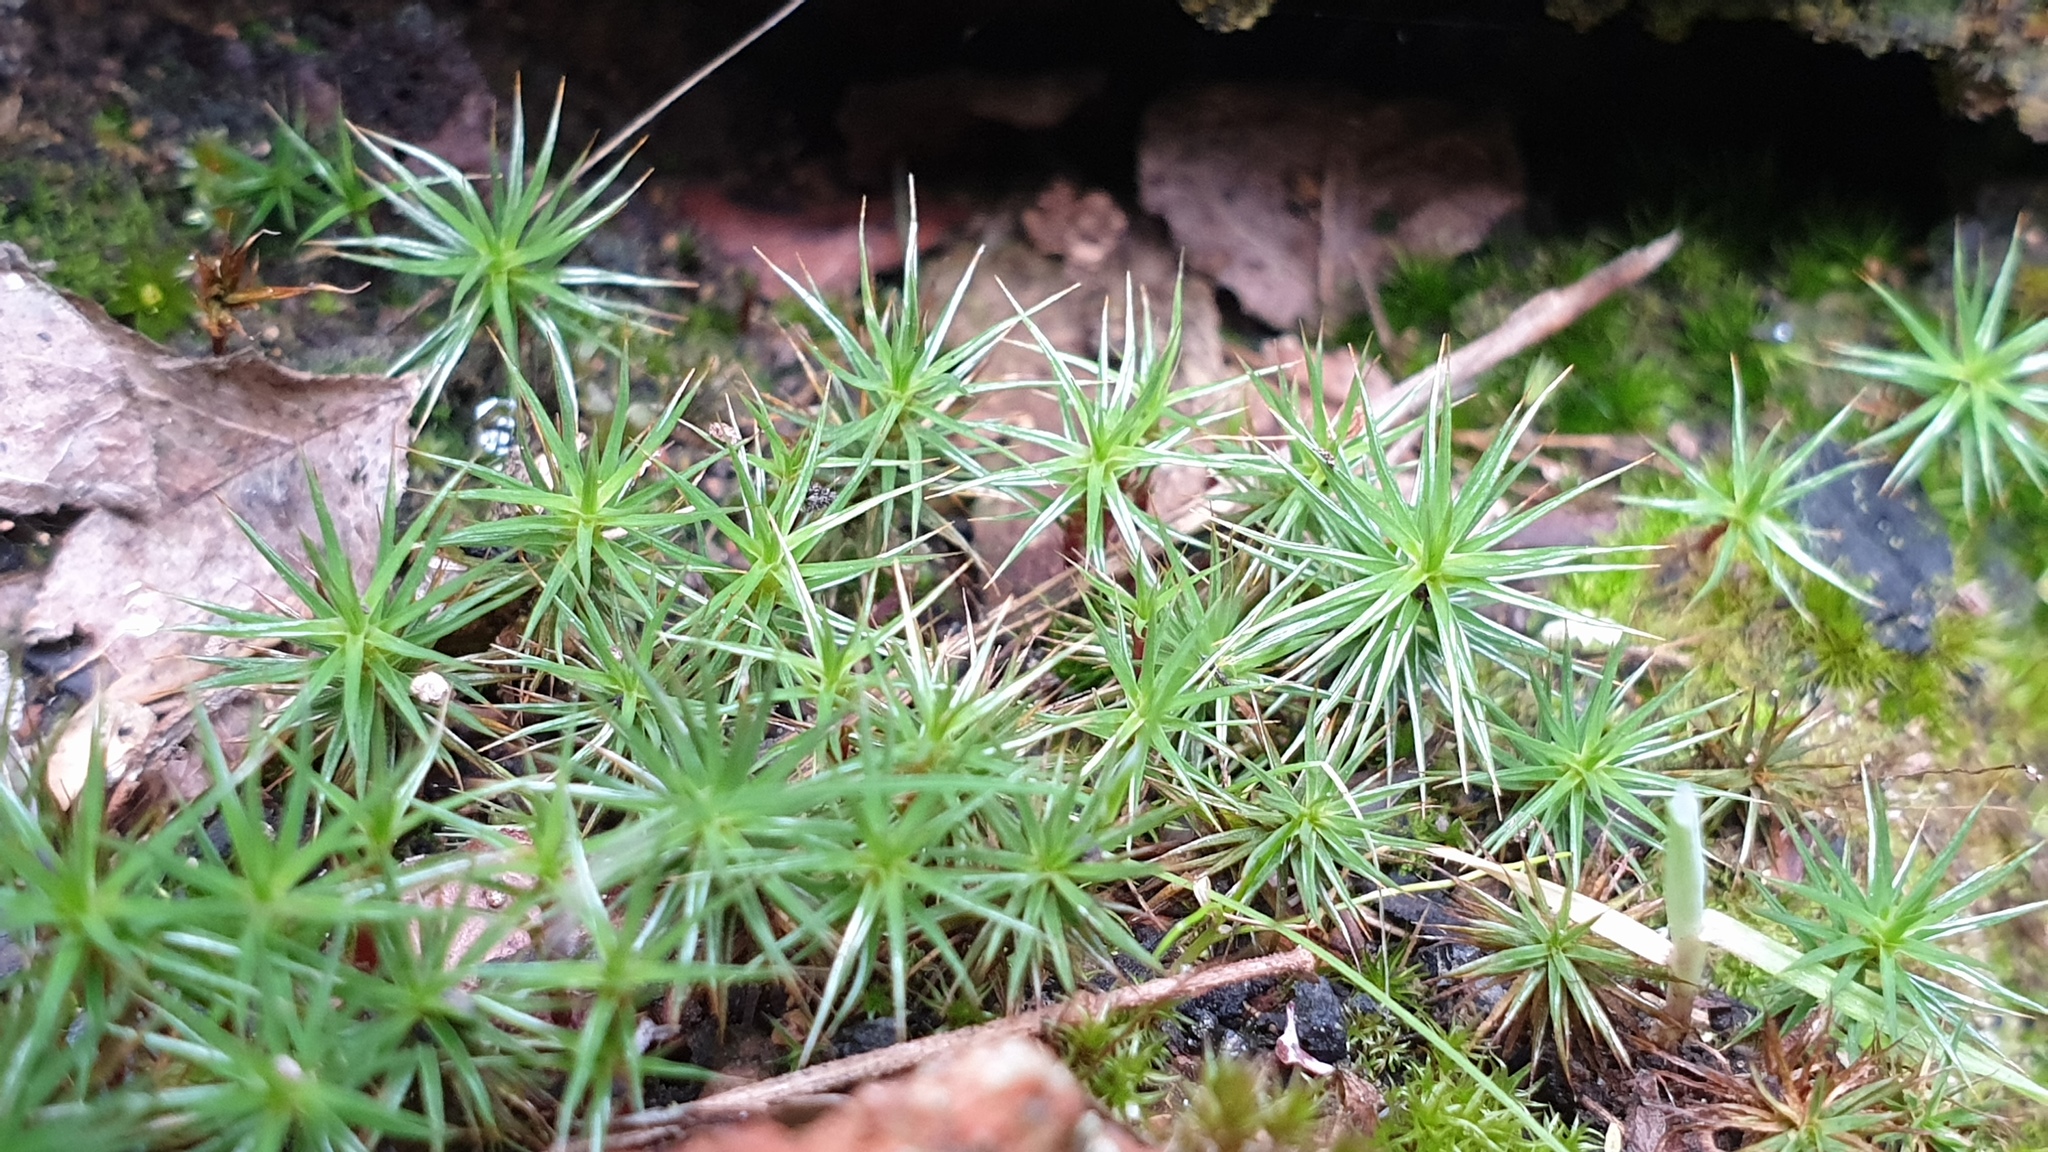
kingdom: Plantae
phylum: Bryophyta
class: Polytrichopsida
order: Polytrichales
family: Polytrichaceae
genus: Polytrichum
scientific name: Polytrichum juniperinum
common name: Juniper haircap moss
